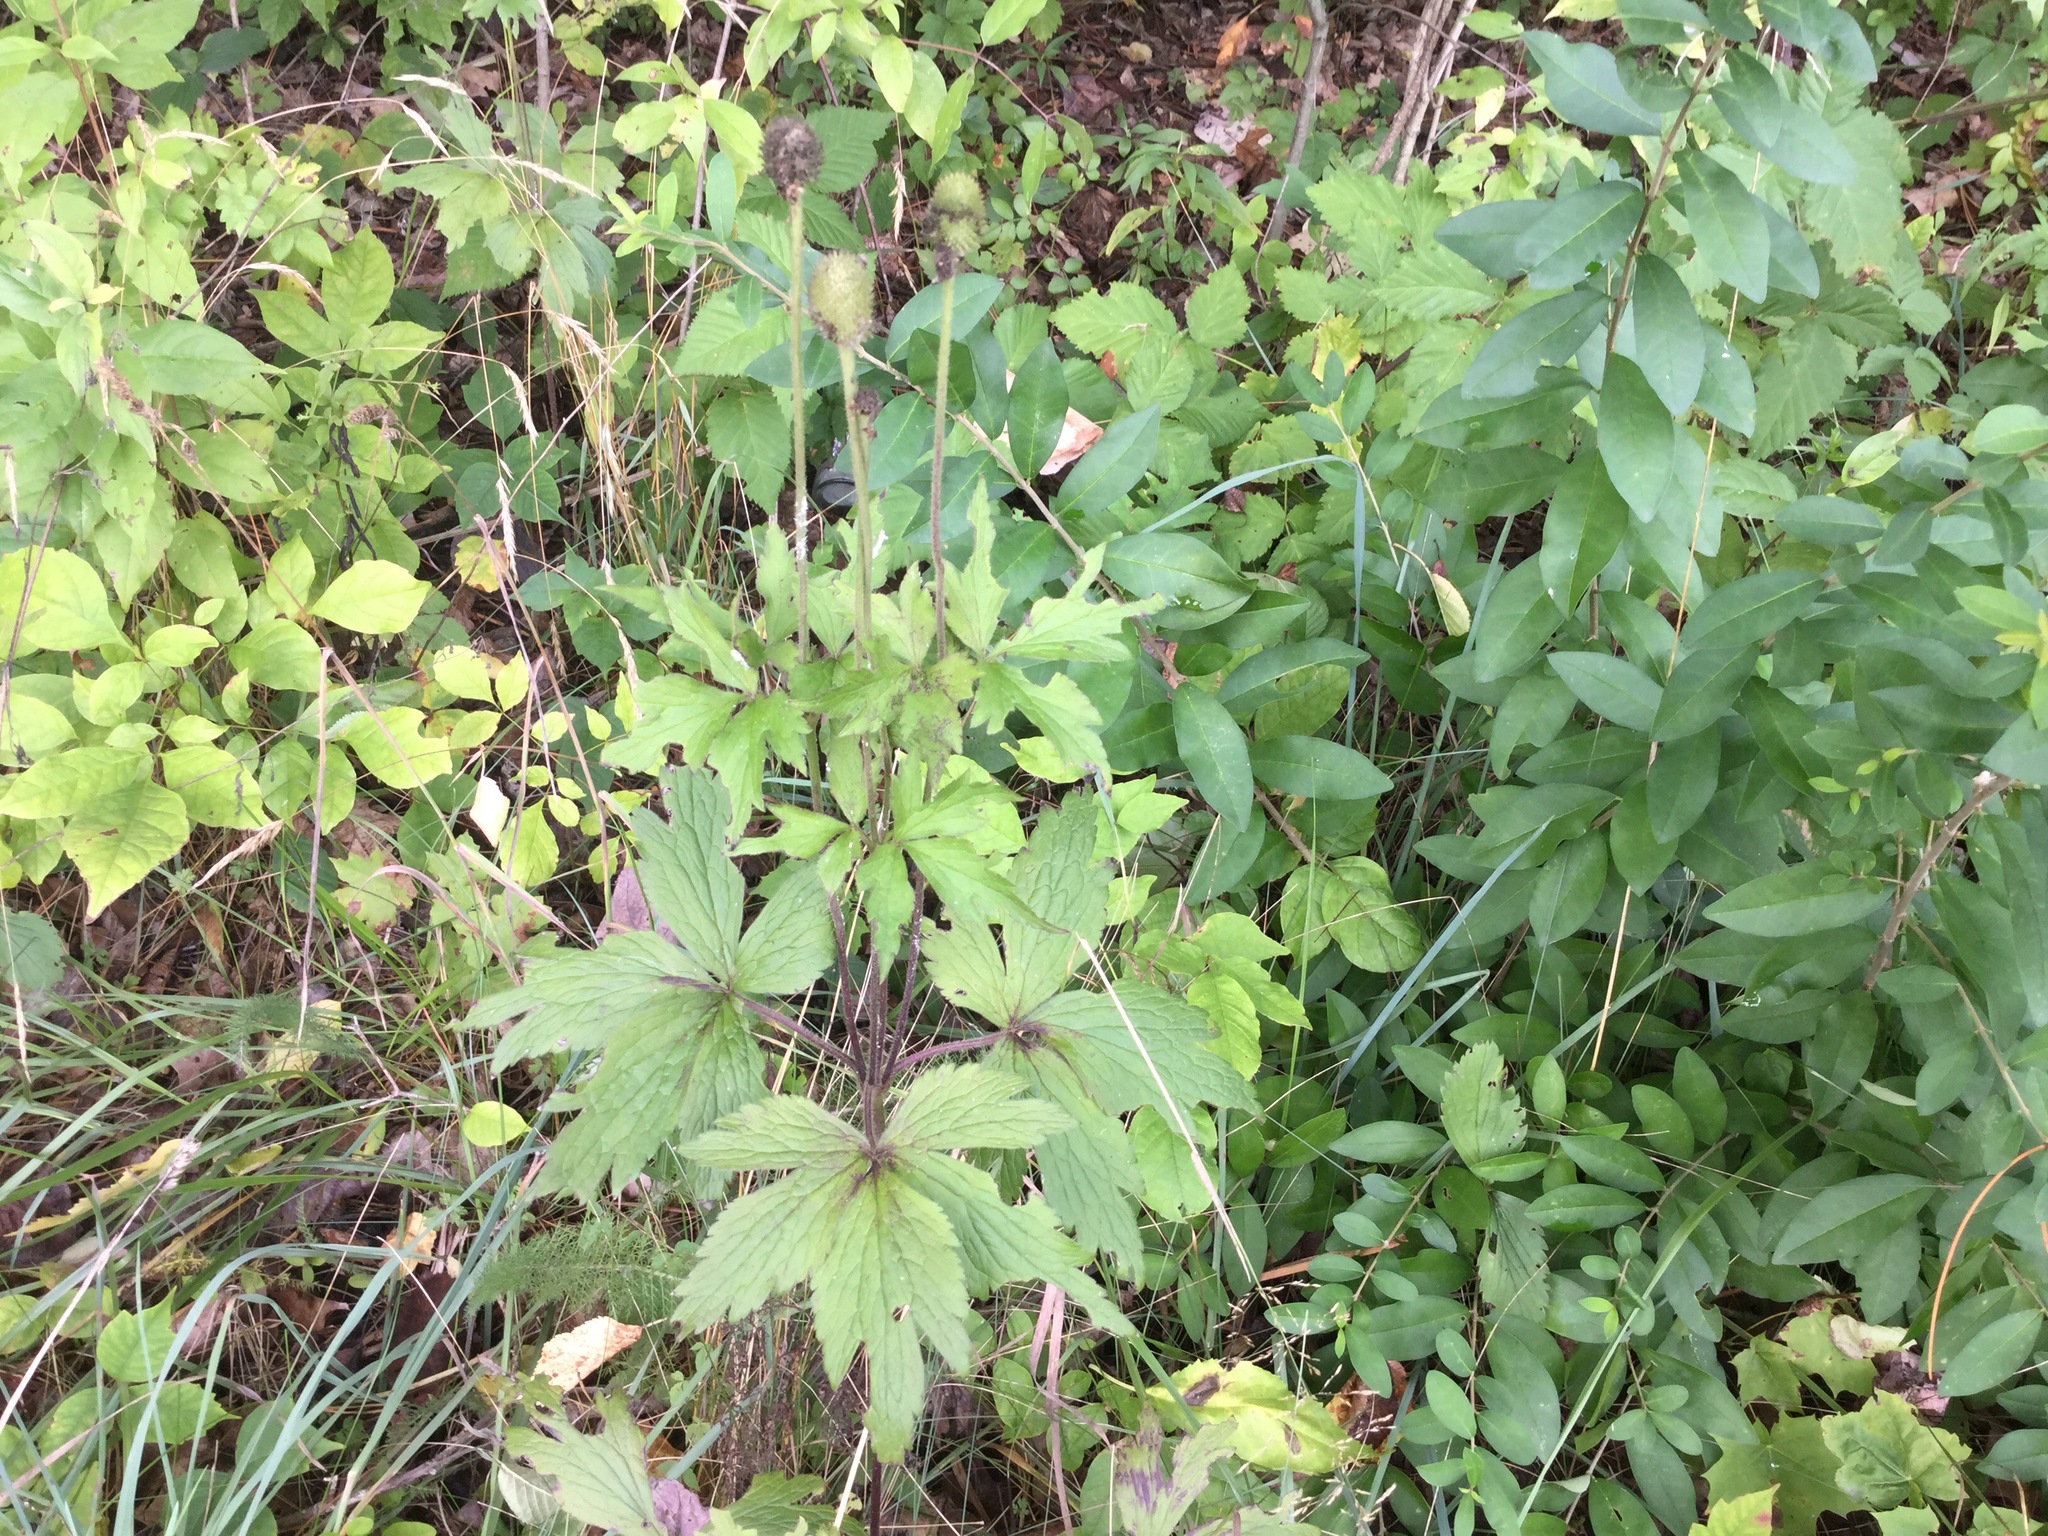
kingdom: Plantae
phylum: Tracheophyta
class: Magnoliopsida
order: Ranunculales
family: Ranunculaceae
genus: Anemone
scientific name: Anemone virginiana
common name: Tall anemone
